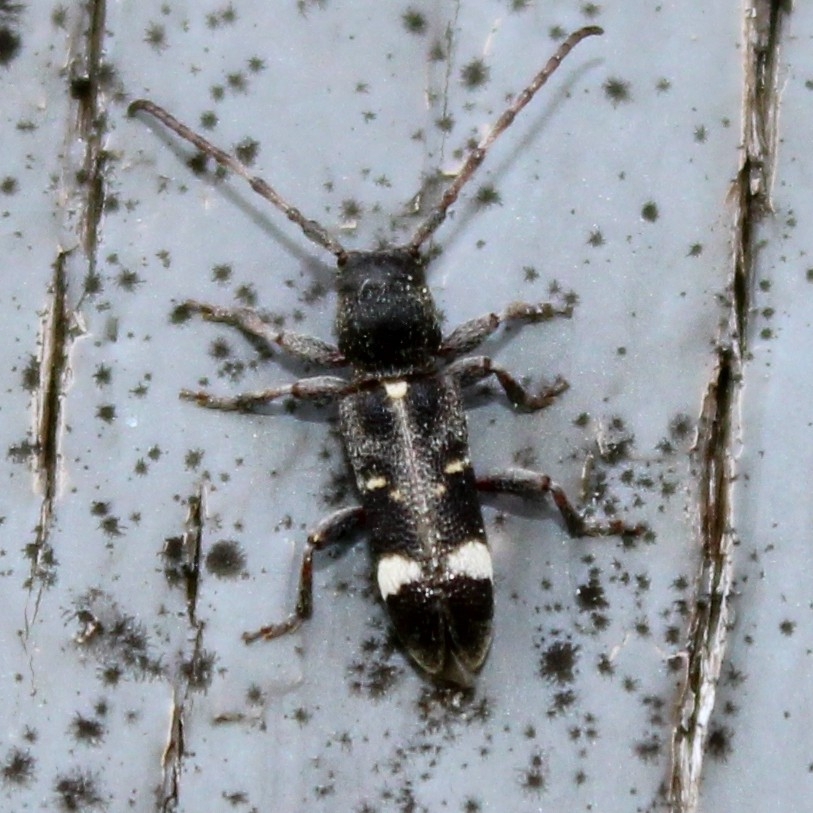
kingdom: Animalia
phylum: Arthropoda
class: Insecta
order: Coleoptera
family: Cerambycidae
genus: Psenocerus
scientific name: Psenocerus supernotatus
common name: Currant-tip borer
